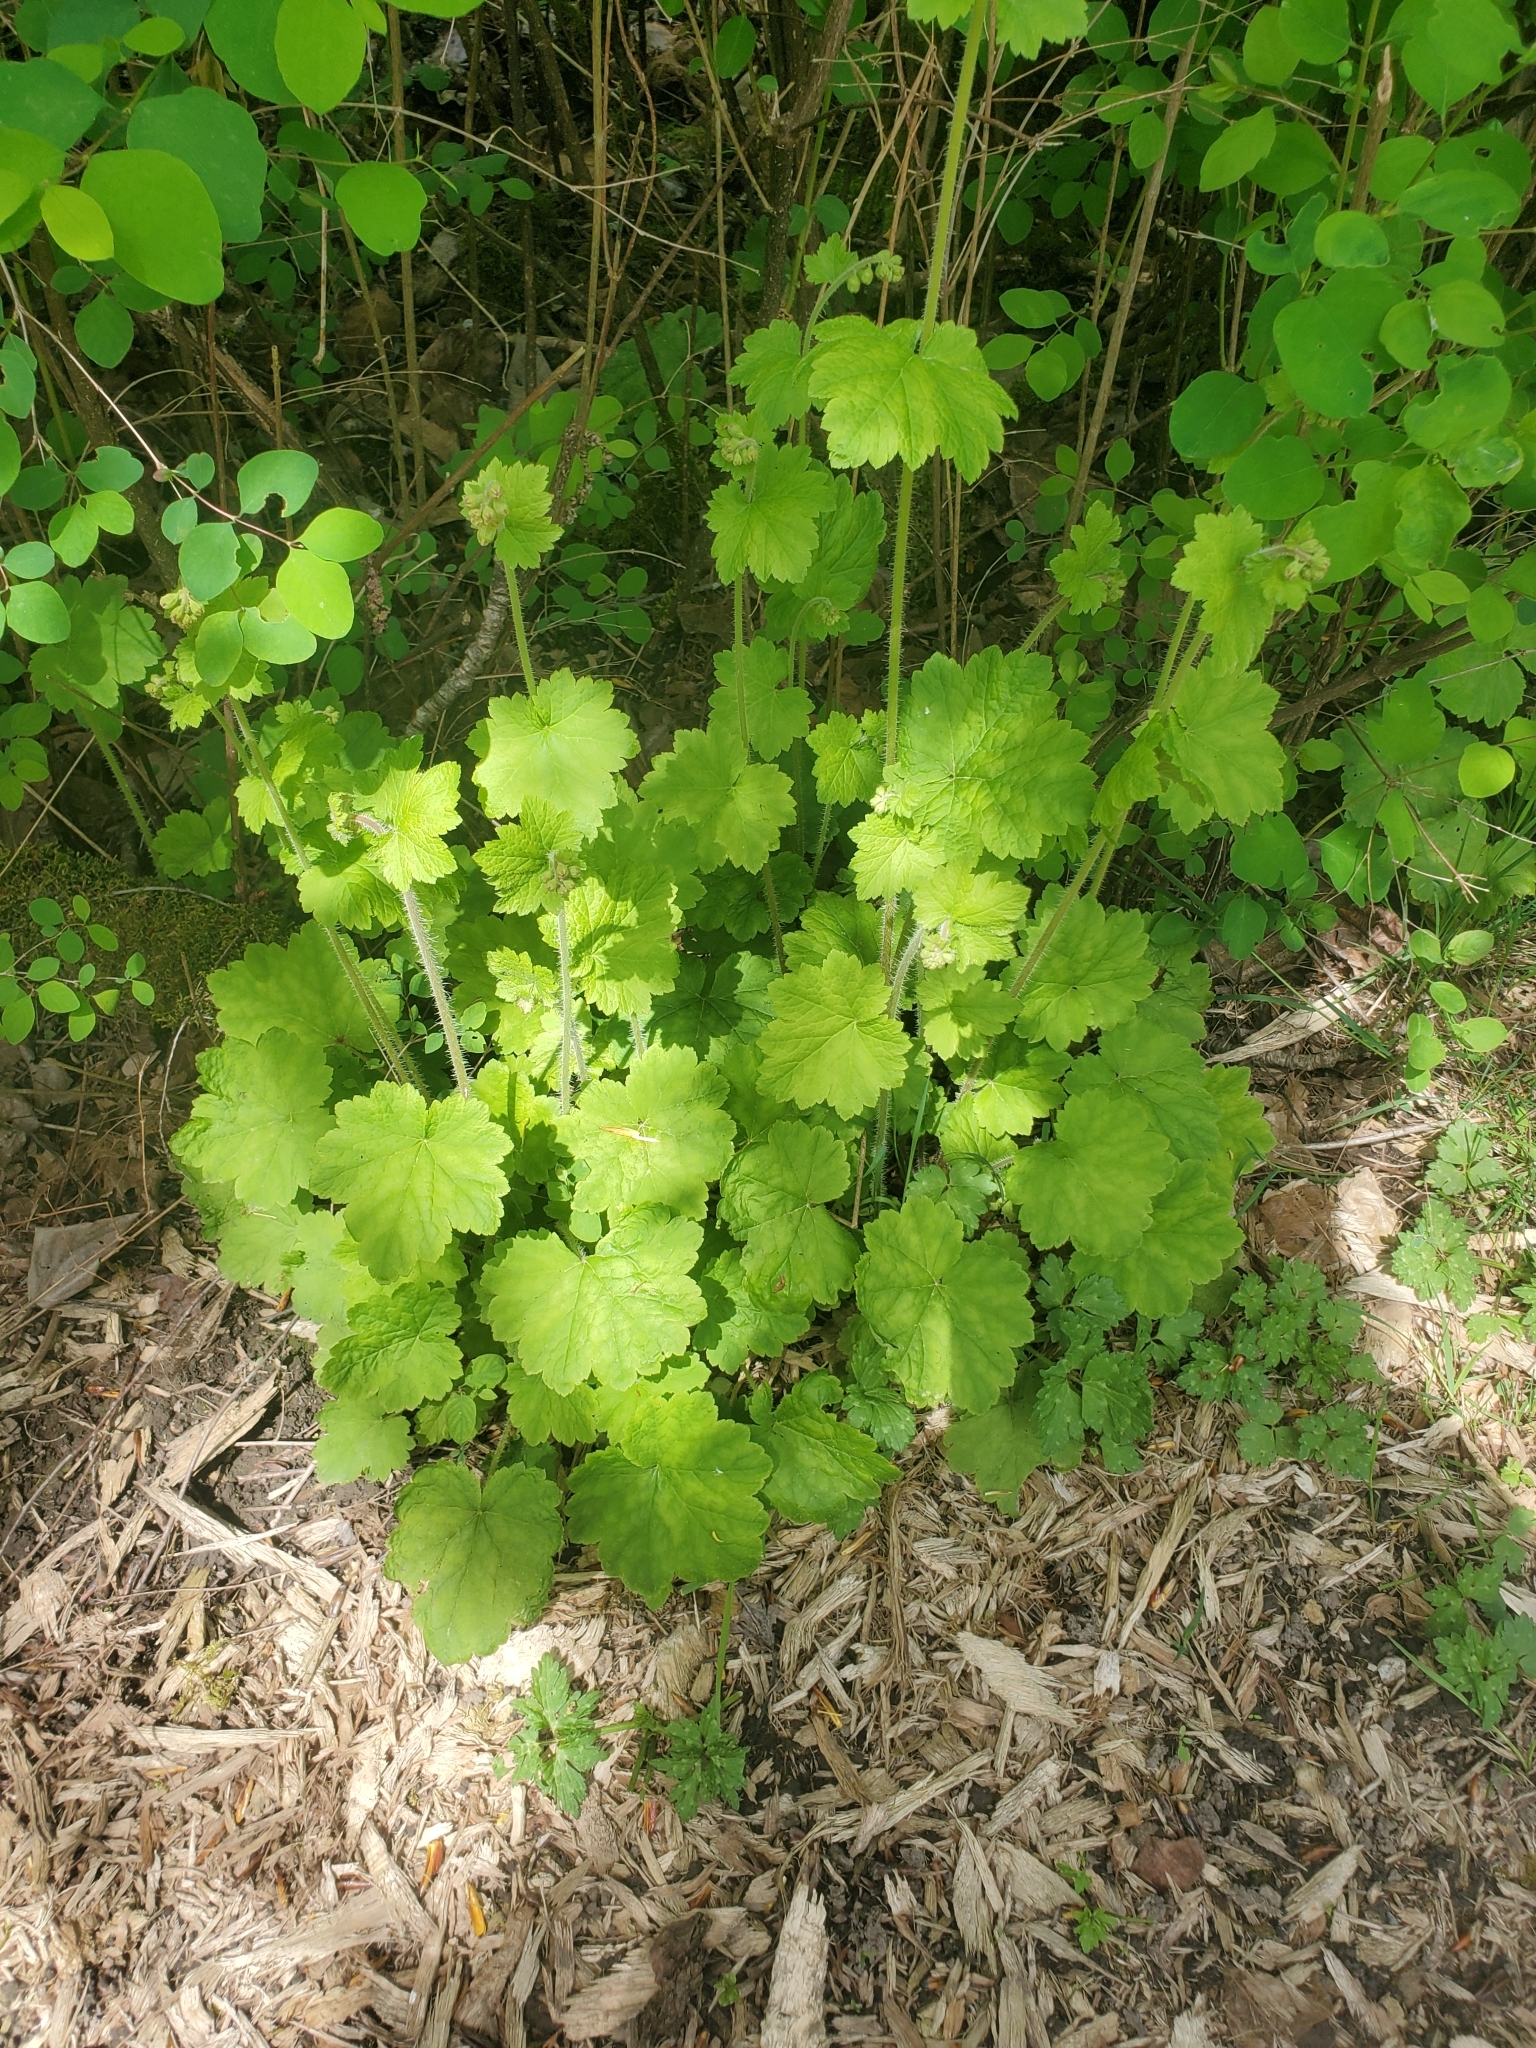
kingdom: Plantae
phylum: Tracheophyta
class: Magnoliopsida
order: Saxifragales
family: Saxifragaceae
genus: Tellima
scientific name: Tellima grandiflora
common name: Fringecups
